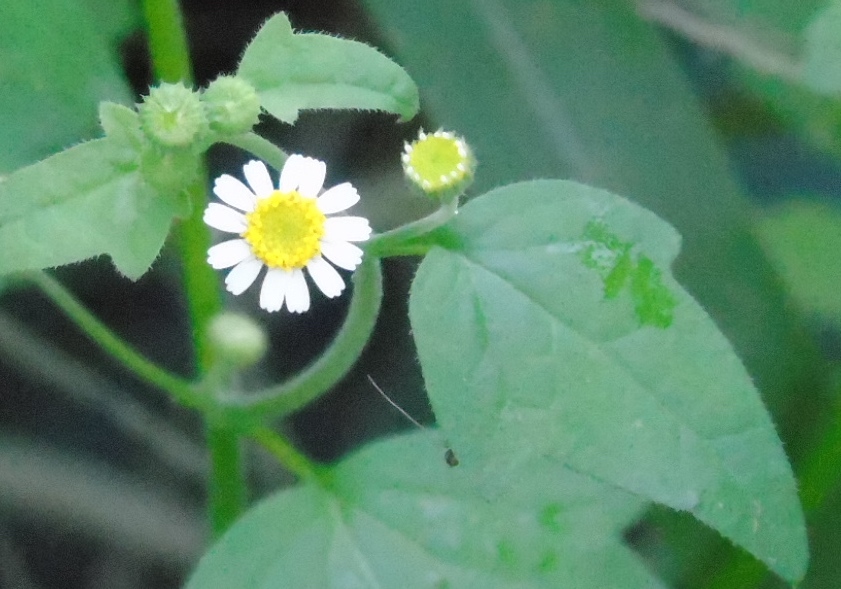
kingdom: Plantae
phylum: Tracheophyta
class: Magnoliopsida
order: Asterales
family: Asteraceae
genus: Galinsogeopsis
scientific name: Galinsogeopsis spilanthoides
